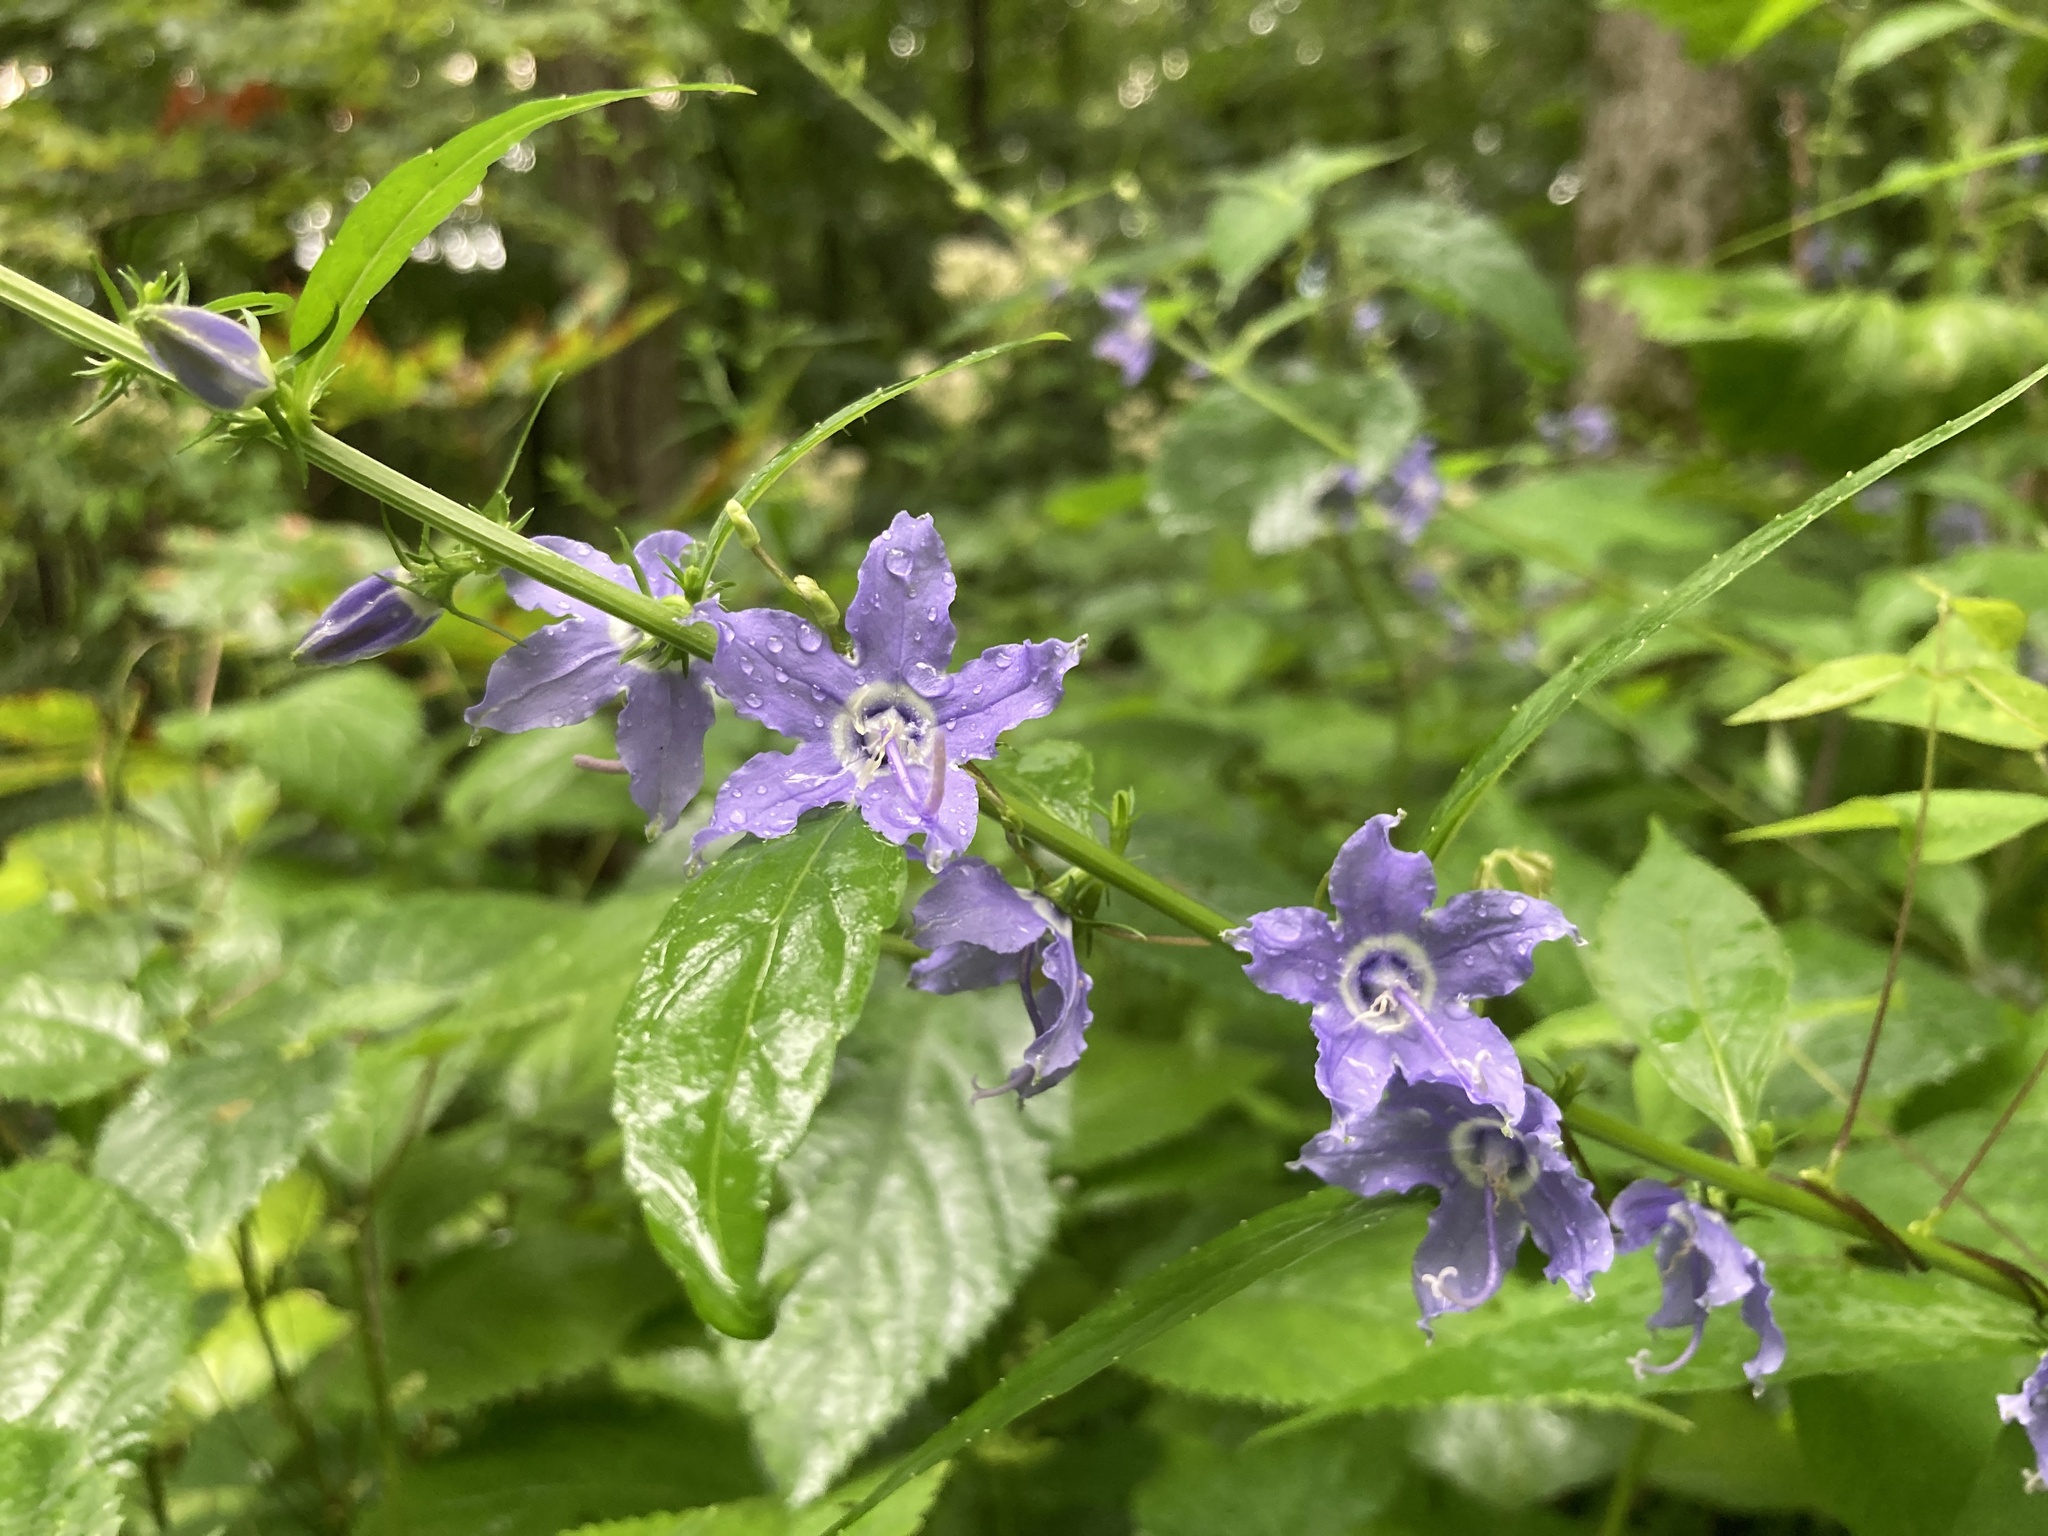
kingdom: Plantae
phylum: Tracheophyta
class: Magnoliopsida
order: Asterales
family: Campanulaceae
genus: Campanulastrum
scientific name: Campanulastrum americanum
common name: American bellflower
